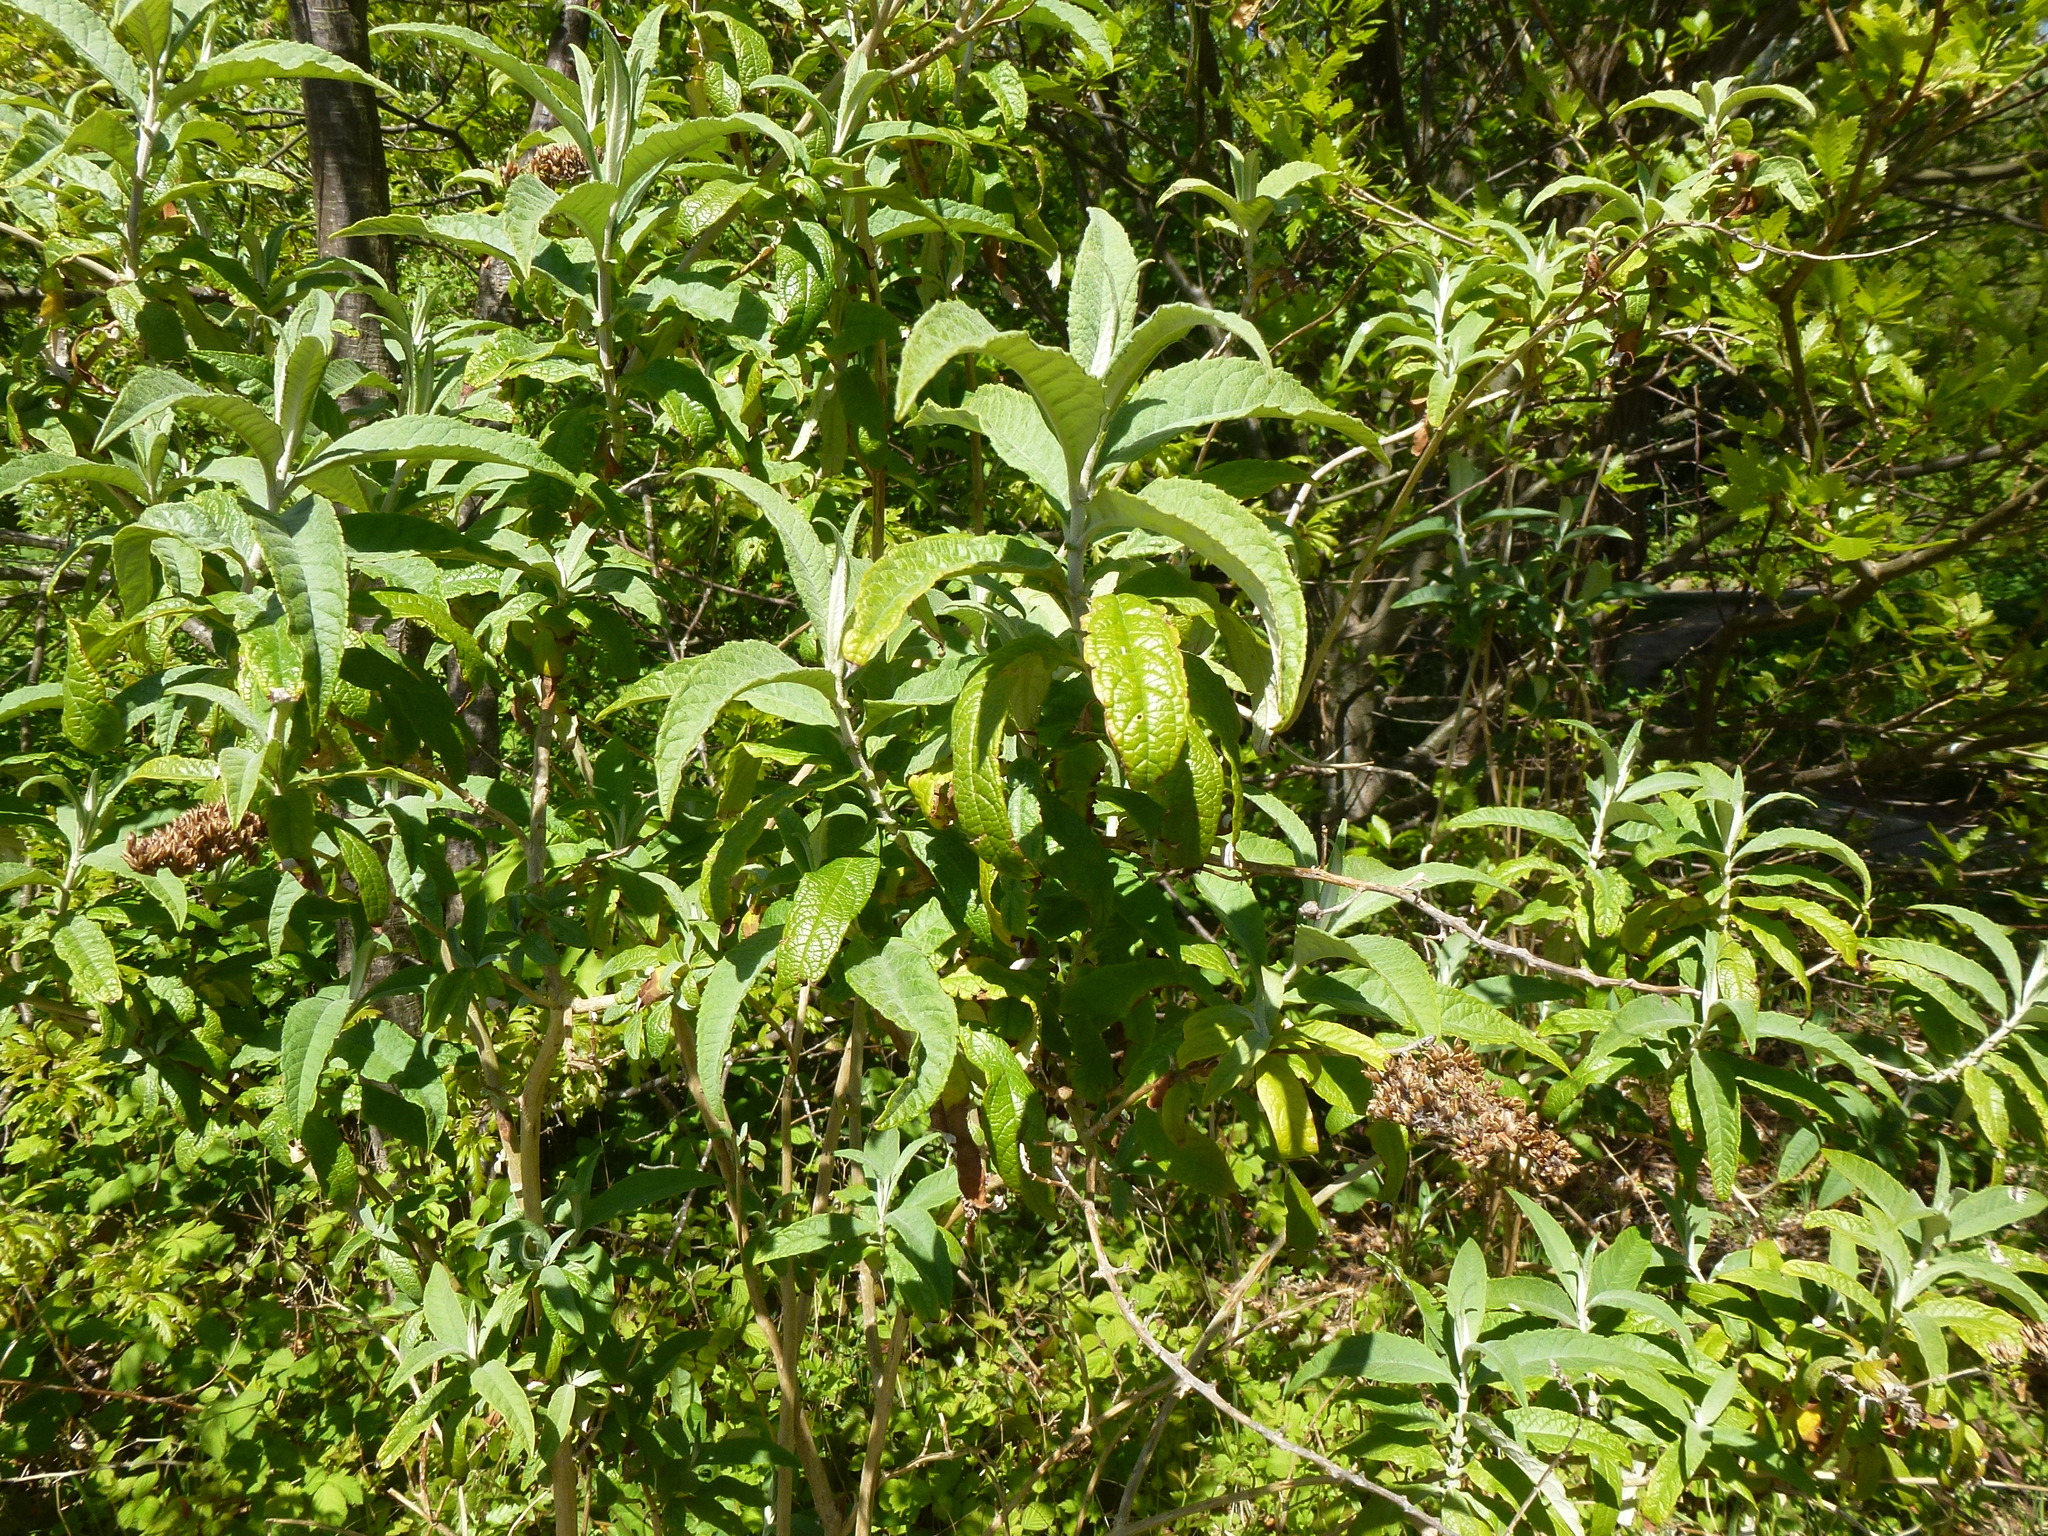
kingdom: Plantae
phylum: Tracheophyta
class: Magnoliopsida
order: Lamiales
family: Scrophulariaceae
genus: Buddleja
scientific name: Buddleja davidii
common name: Butterfly-bush
